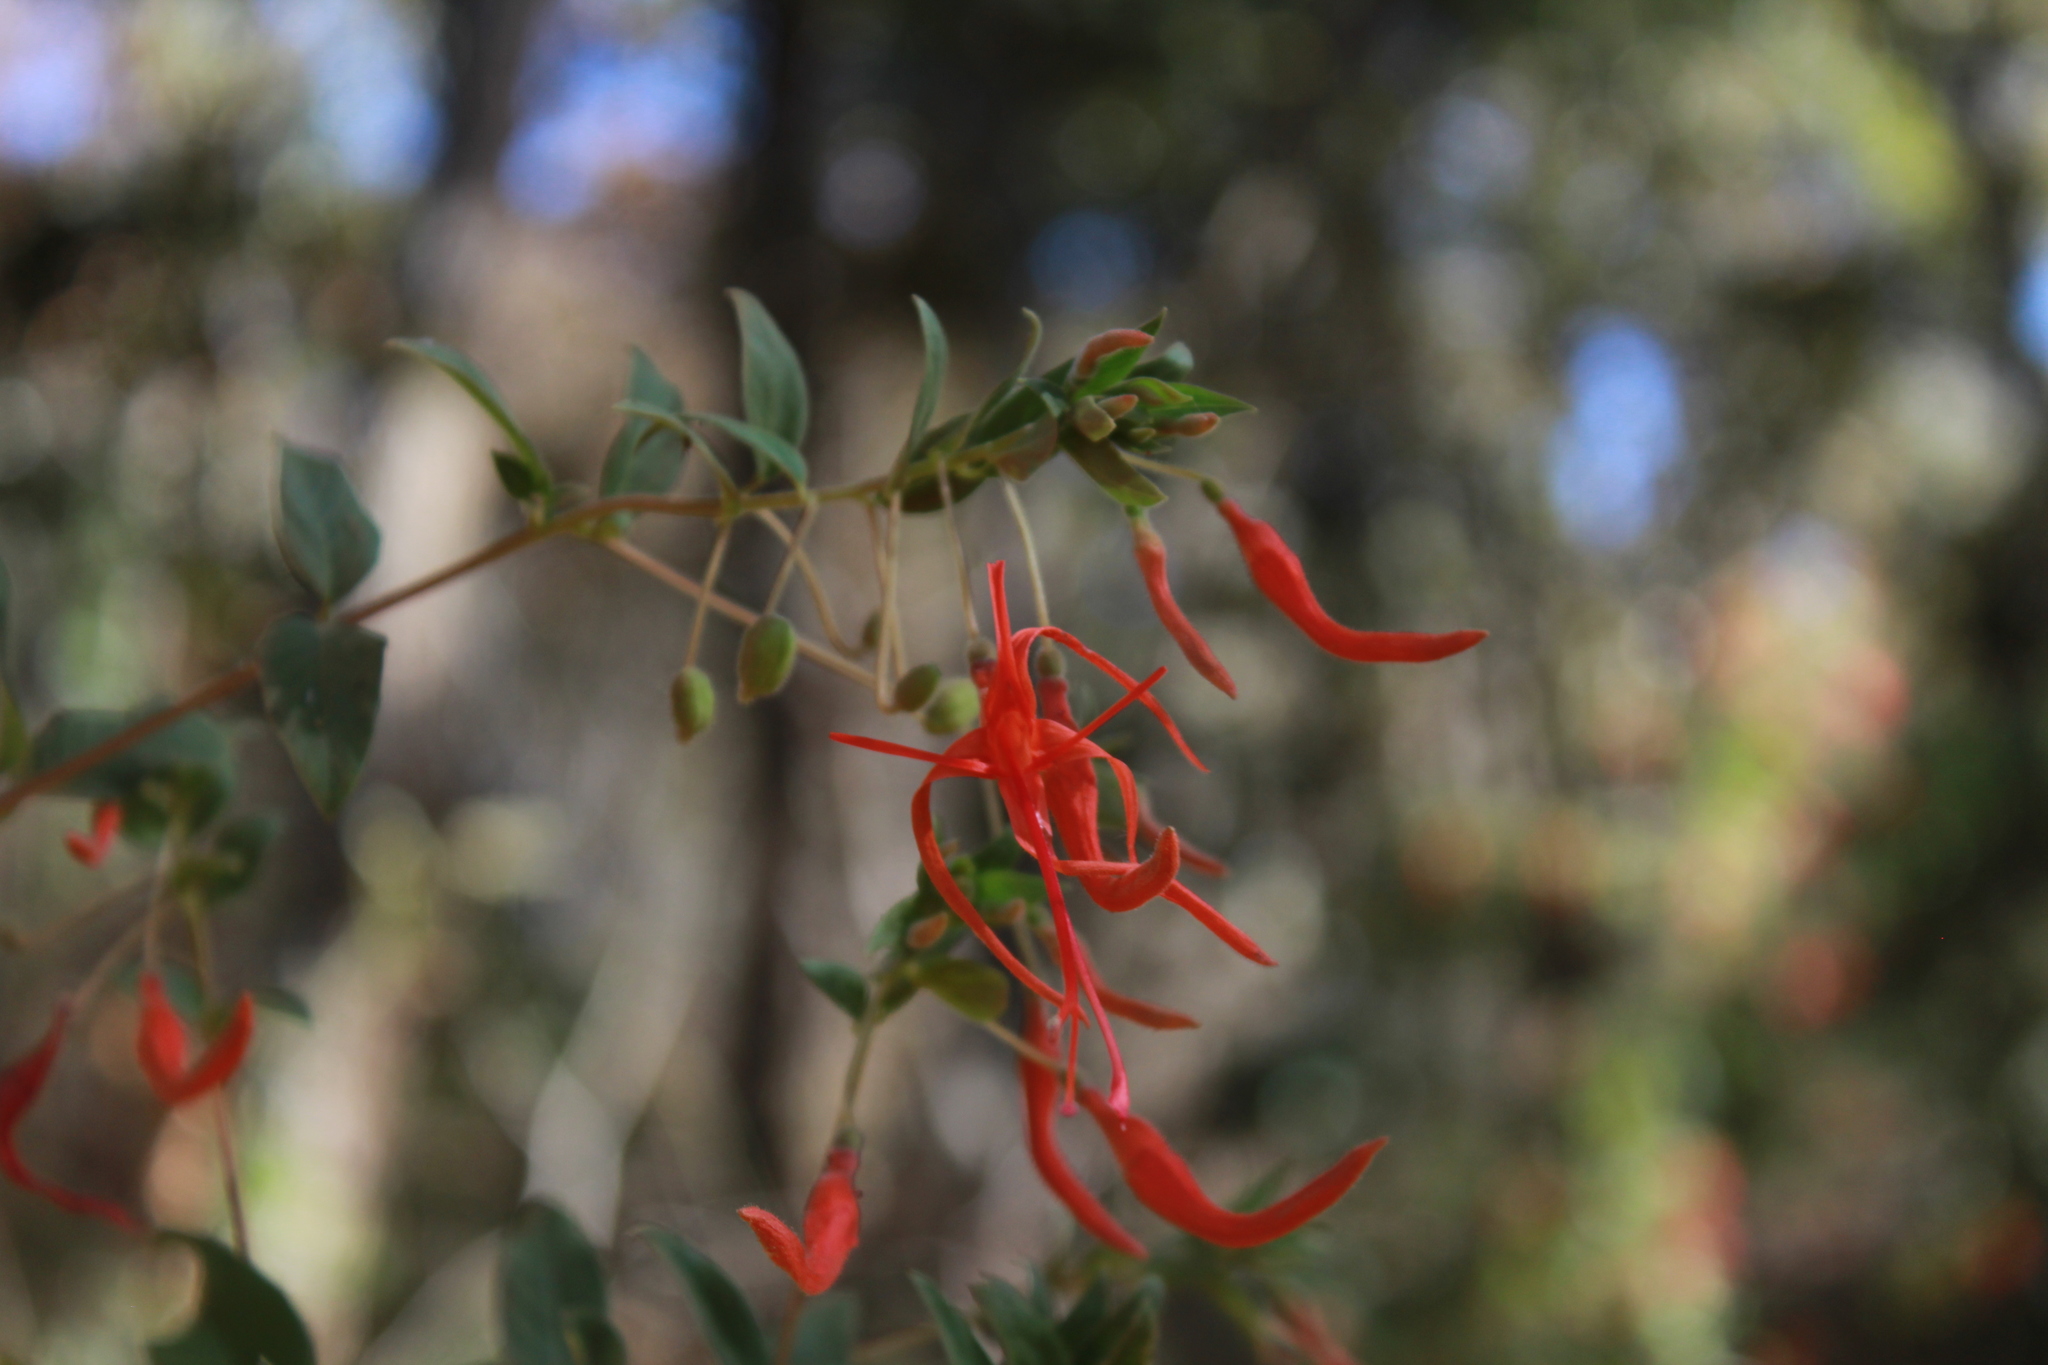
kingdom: Plantae
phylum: Tracheophyta
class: Magnoliopsida
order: Myrtales
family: Onagraceae
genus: Lopezia
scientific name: Lopezia semeiandra
